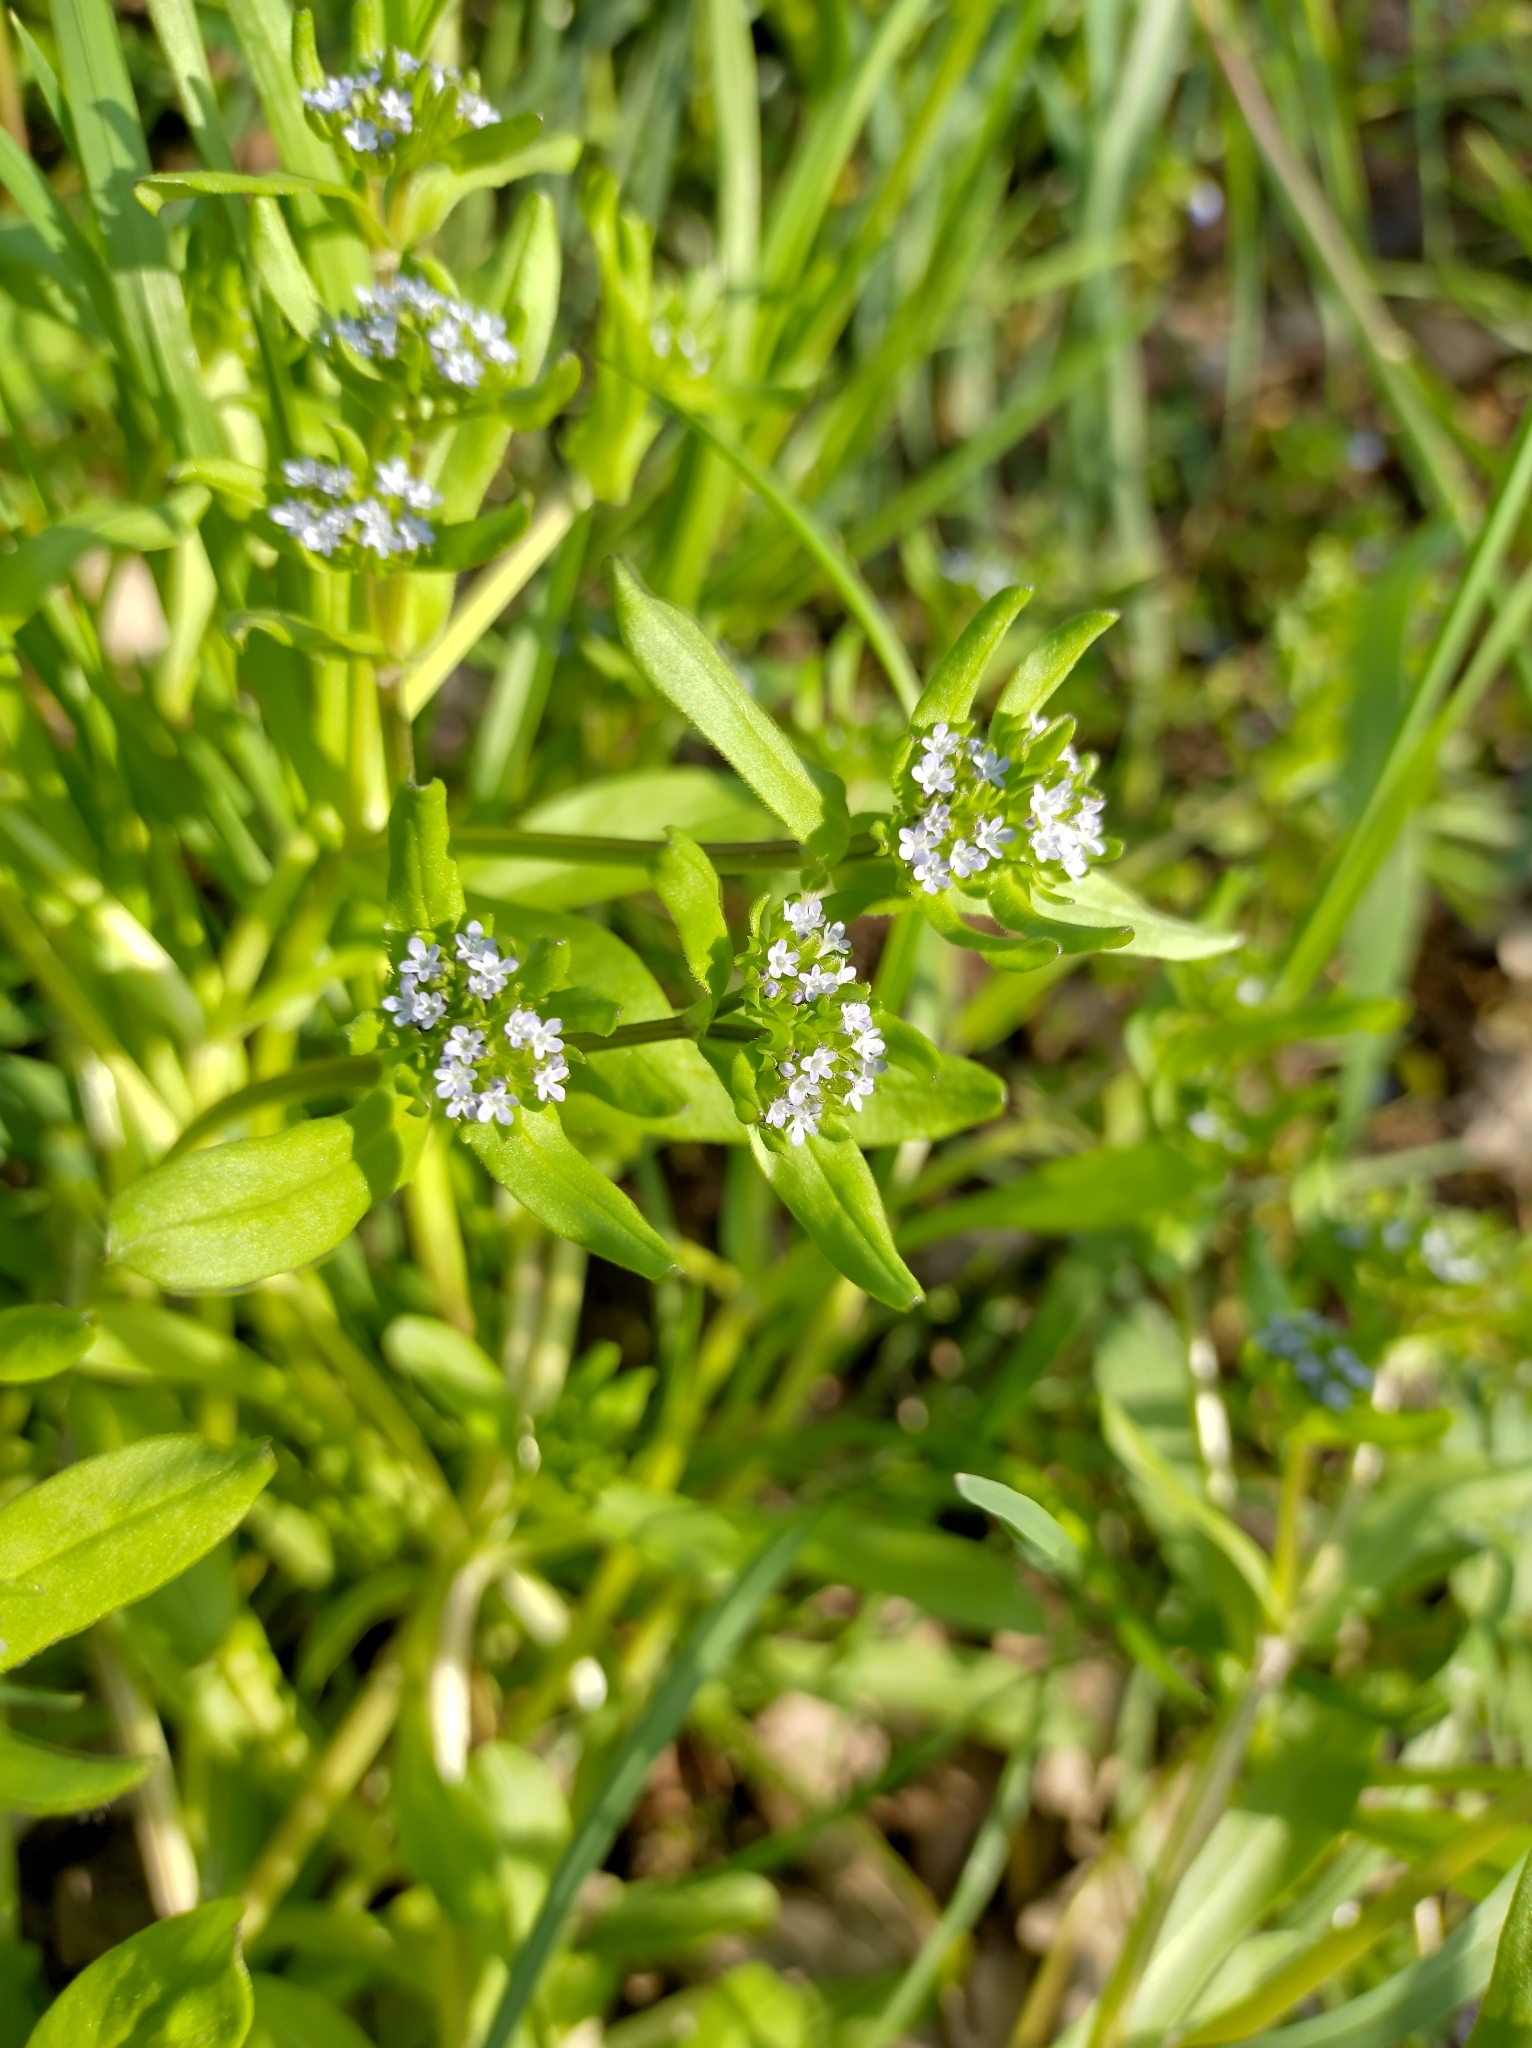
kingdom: Plantae
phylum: Tracheophyta
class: Magnoliopsida
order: Dipsacales
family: Caprifoliaceae
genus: Valerianella
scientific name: Valerianella locusta
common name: Common cornsalad
